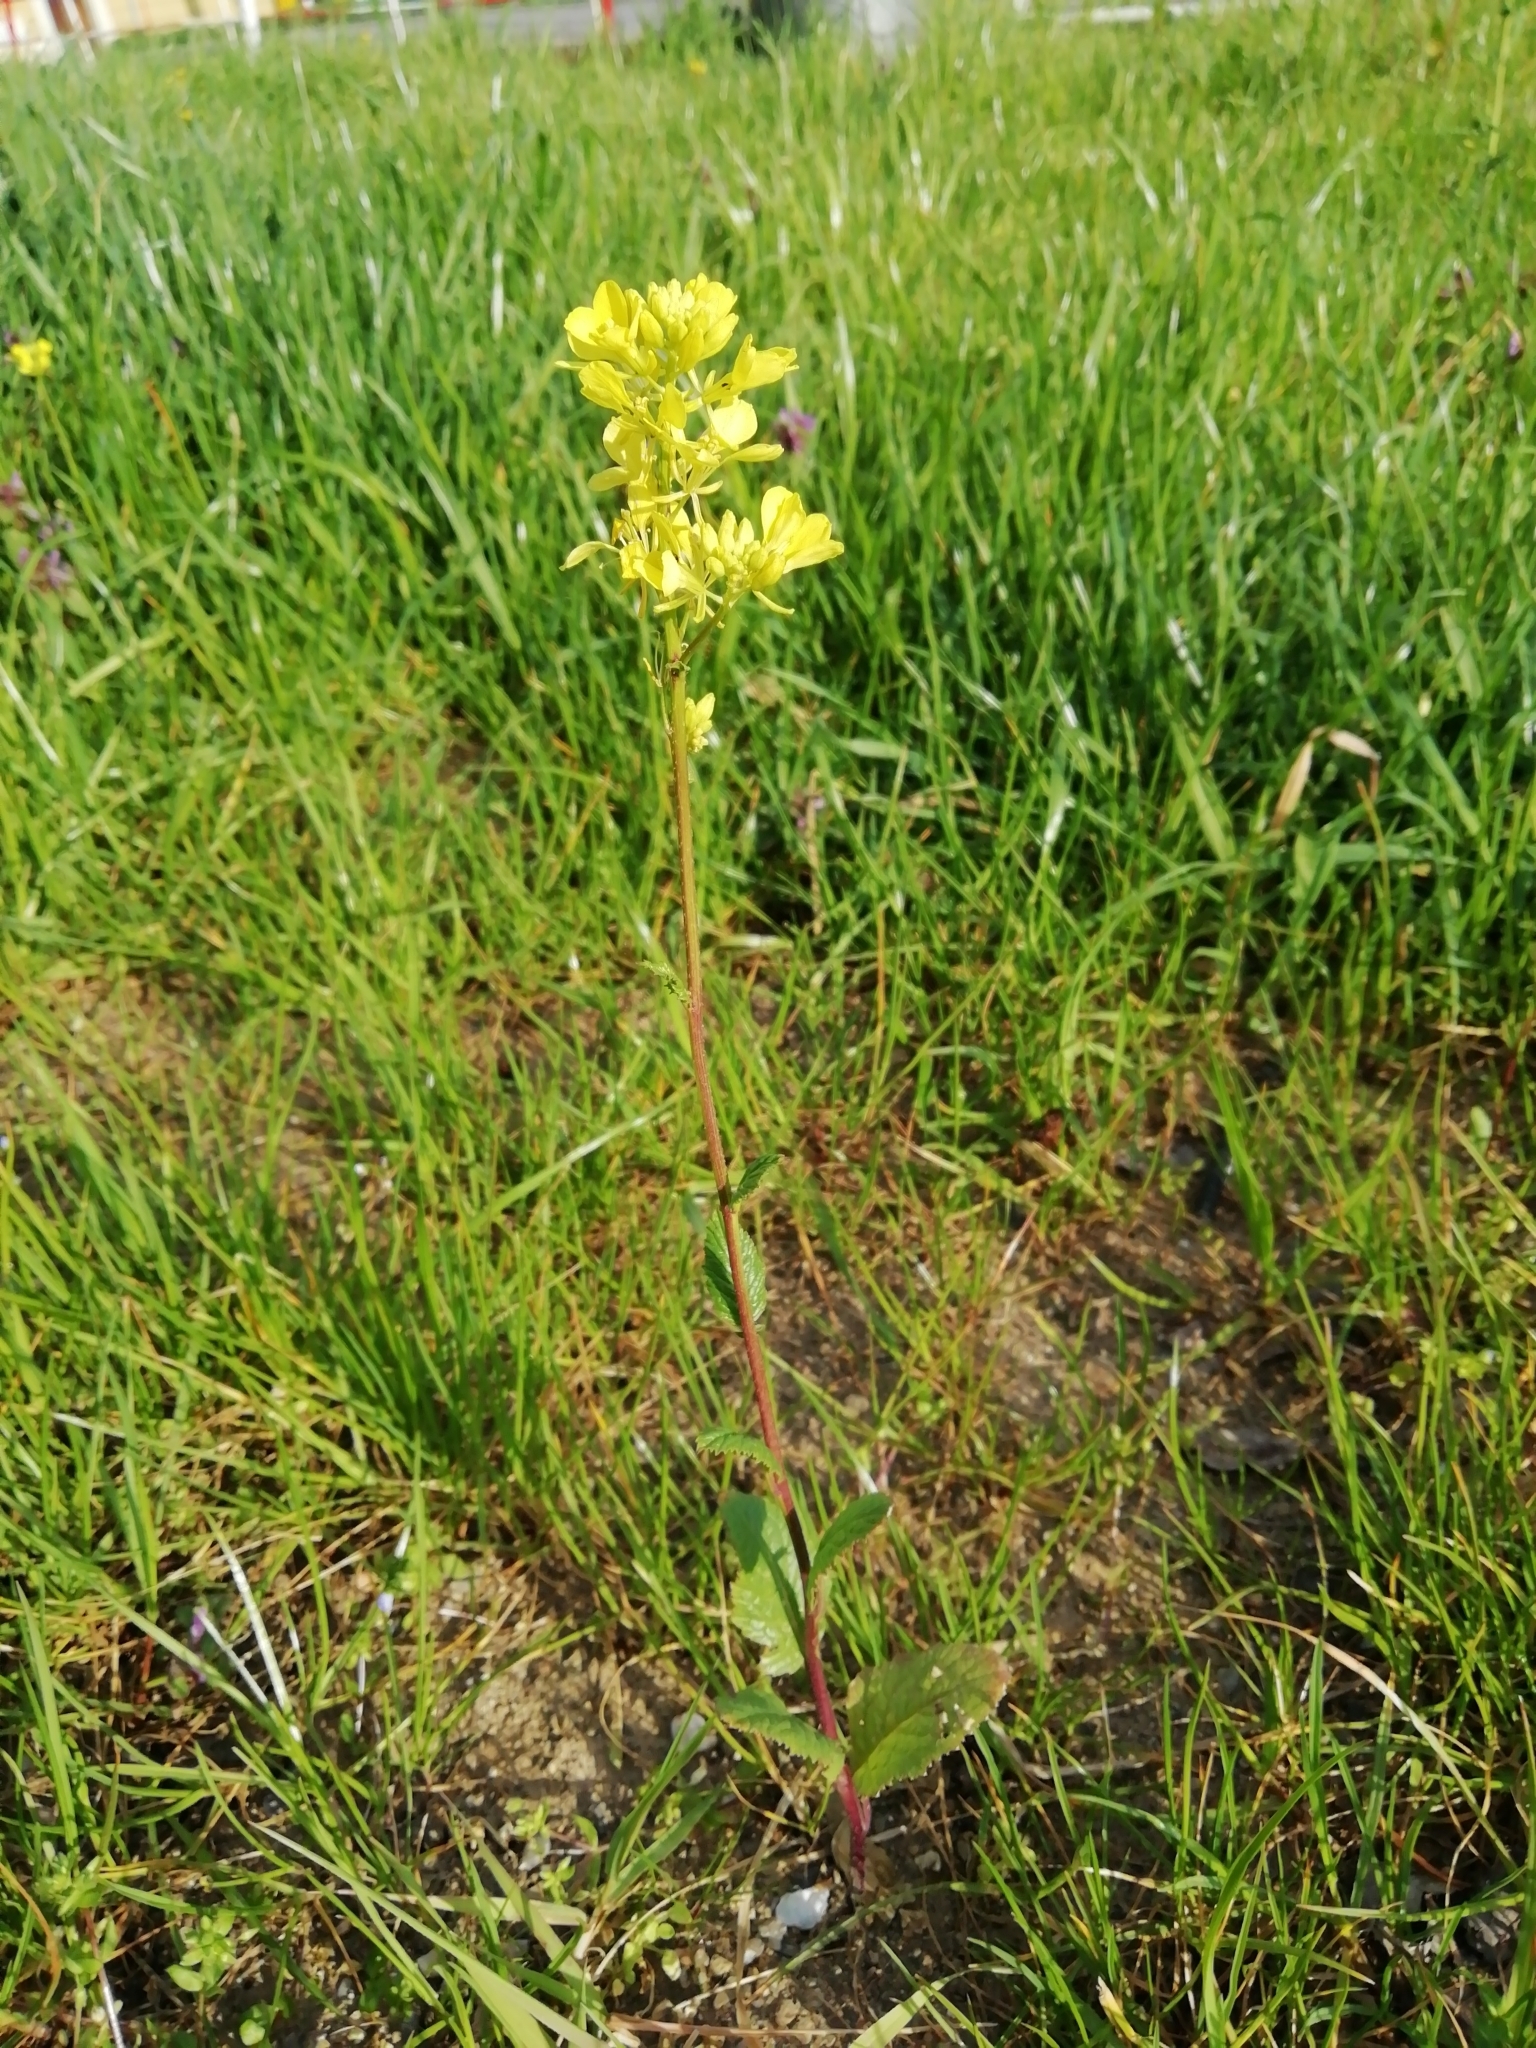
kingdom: Plantae
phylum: Tracheophyta
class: Magnoliopsida
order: Brassicales
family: Brassicaceae
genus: Sinapis
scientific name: Sinapis arvensis
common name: Charlock
